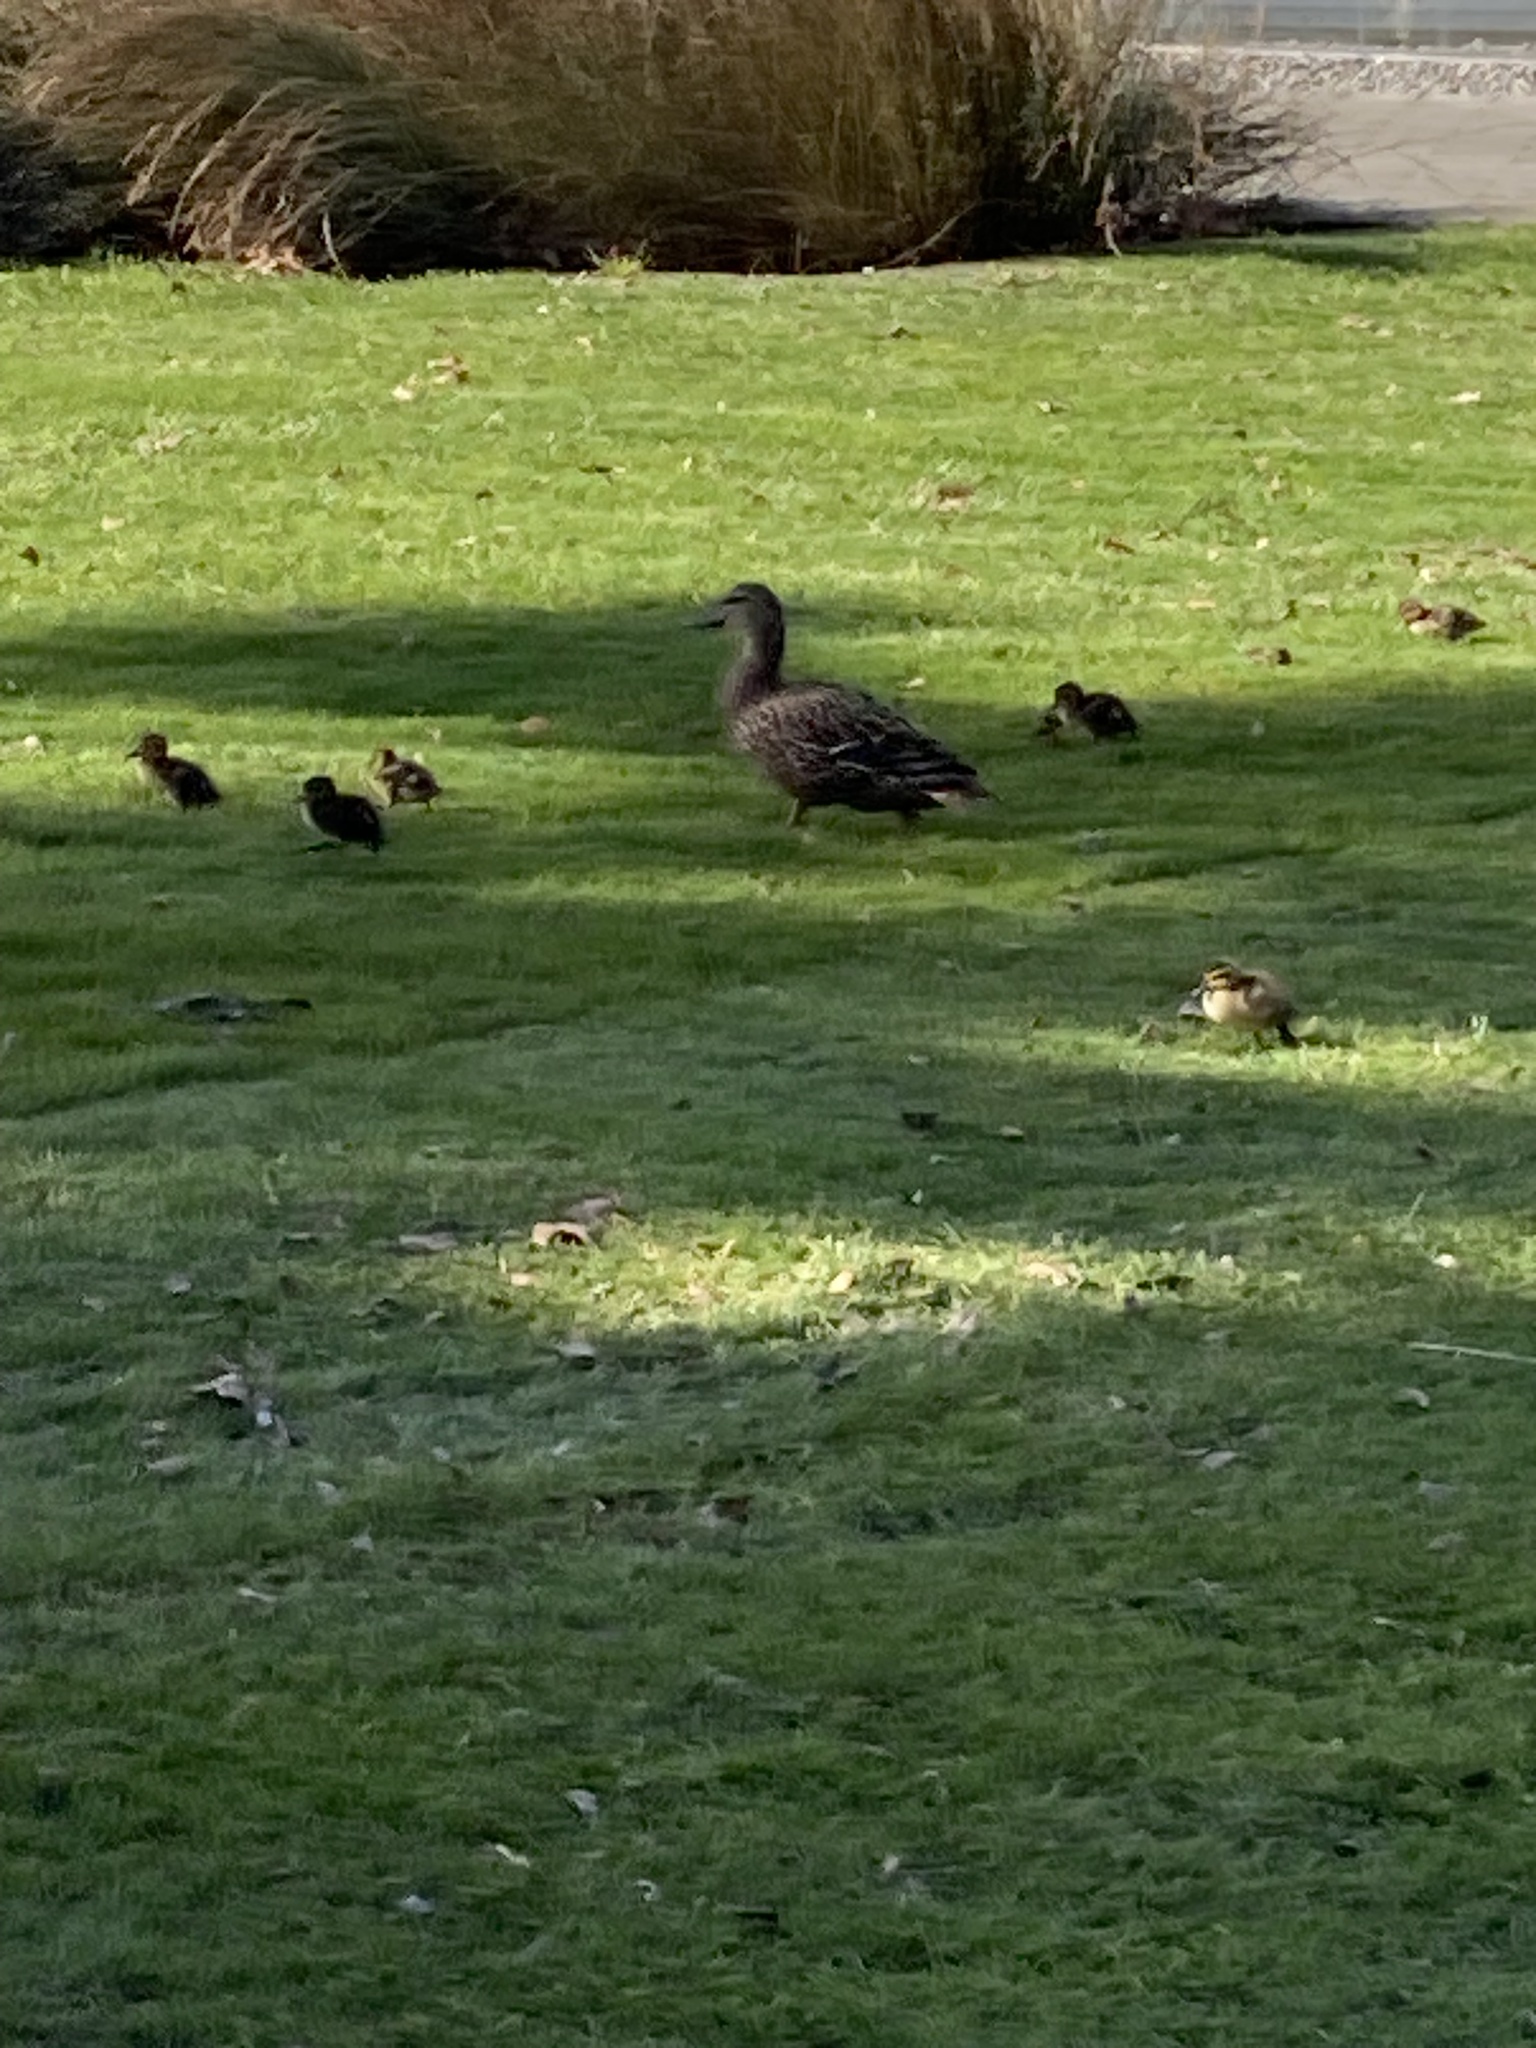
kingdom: Animalia
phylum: Chordata
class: Aves
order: Anseriformes
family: Anatidae
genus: Anas
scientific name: Anas platyrhynchos
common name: Mallard
